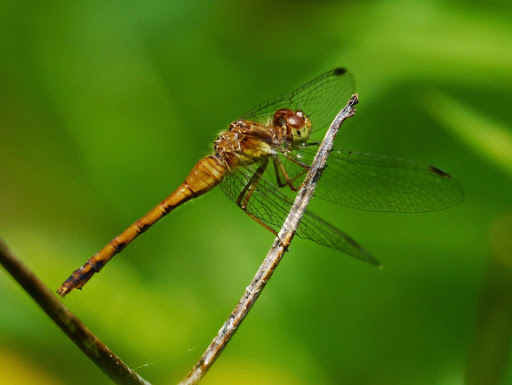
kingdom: Animalia
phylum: Arthropoda
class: Insecta
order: Odonata
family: Libellulidae
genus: Sympetrum
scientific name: Sympetrum vicinum
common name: Autumn meadowhawk
